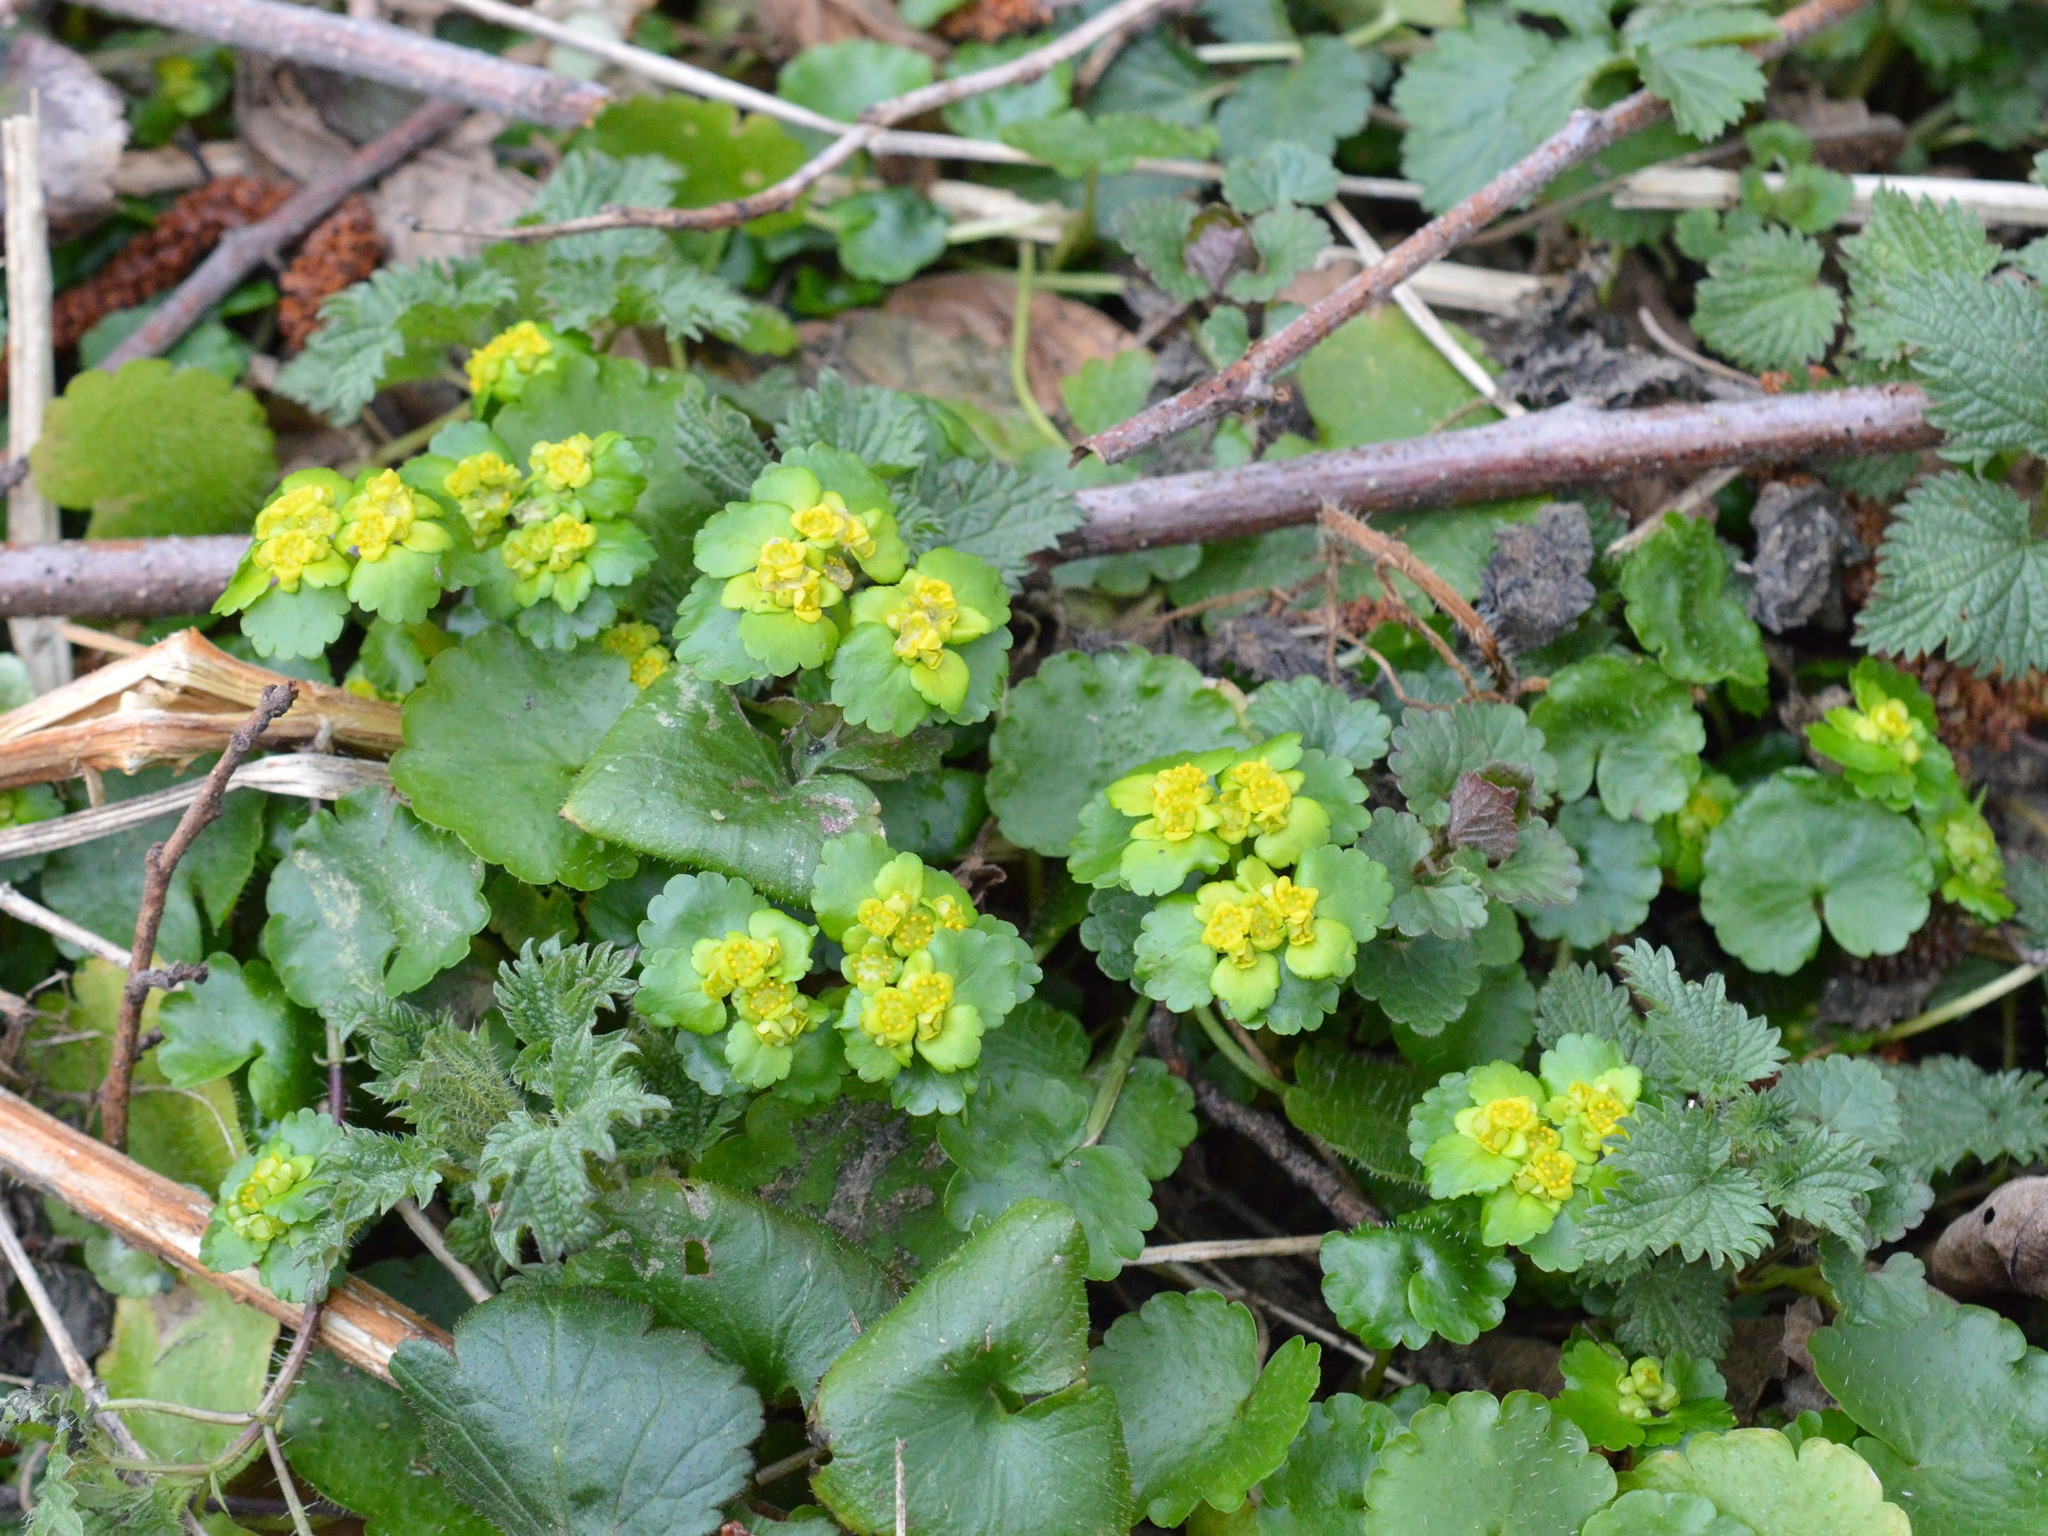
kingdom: Plantae
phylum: Tracheophyta
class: Magnoliopsida
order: Saxifragales
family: Saxifragaceae
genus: Chrysosplenium
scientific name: Chrysosplenium alternifolium
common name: Alternate-leaved golden-saxifrage
